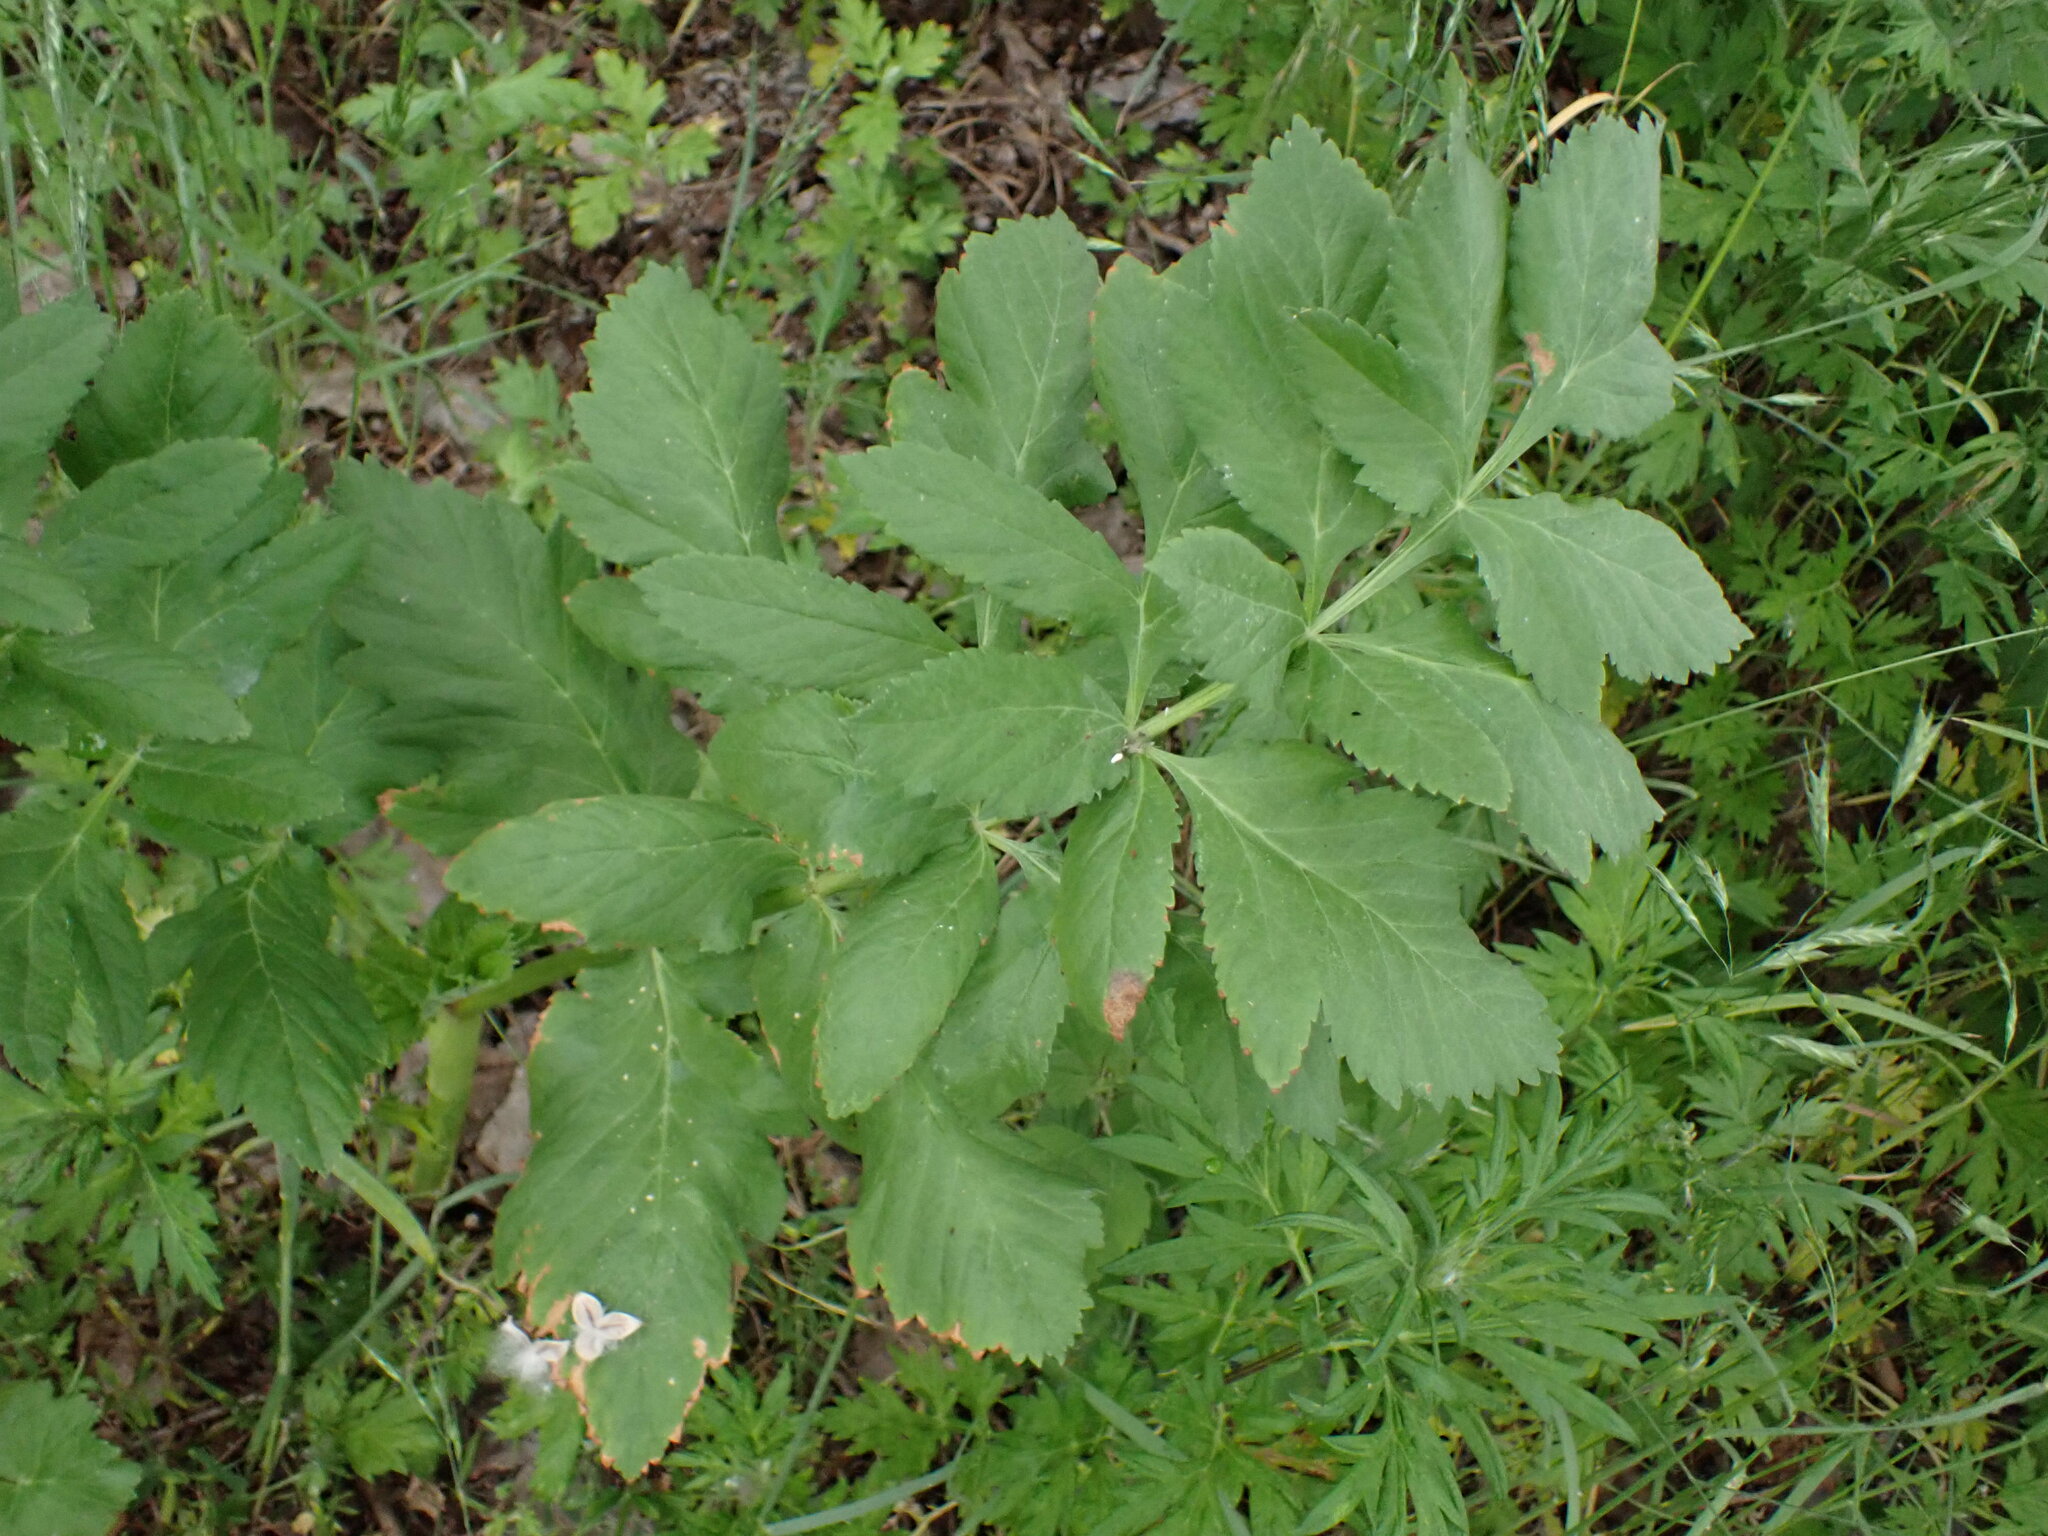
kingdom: Plantae
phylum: Tracheophyta
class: Magnoliopsida
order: Apiales
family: Apiaceae
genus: Pastinaca
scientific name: Pastinaca sativa
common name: Wild parsnip
